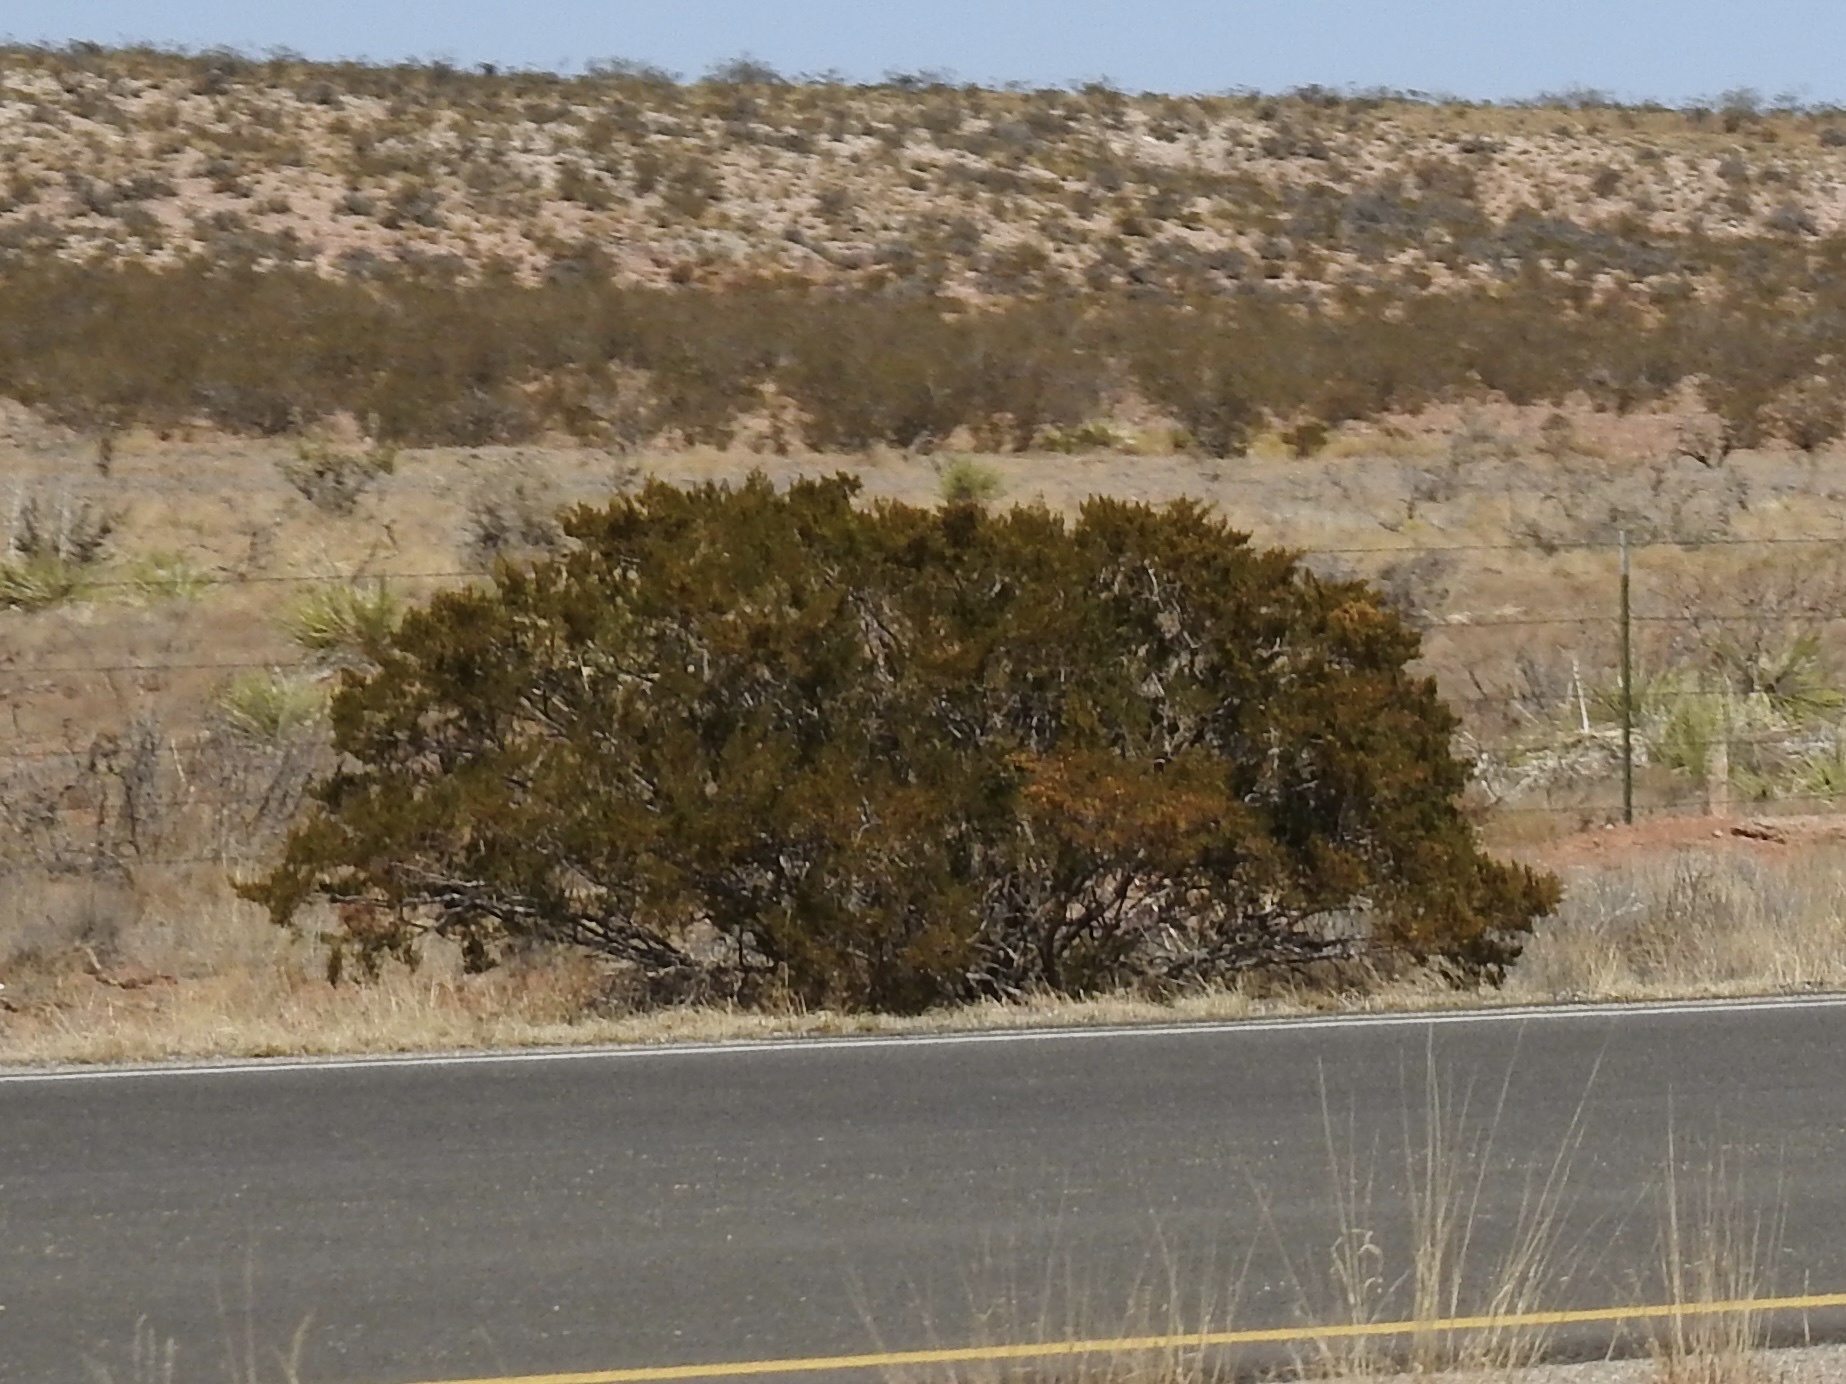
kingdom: Plantae
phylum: Tracheophyta
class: Magnoliopsida
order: Zygophyllales
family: Zygophyllaceae
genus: Larrea
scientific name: Larrea tridentata
